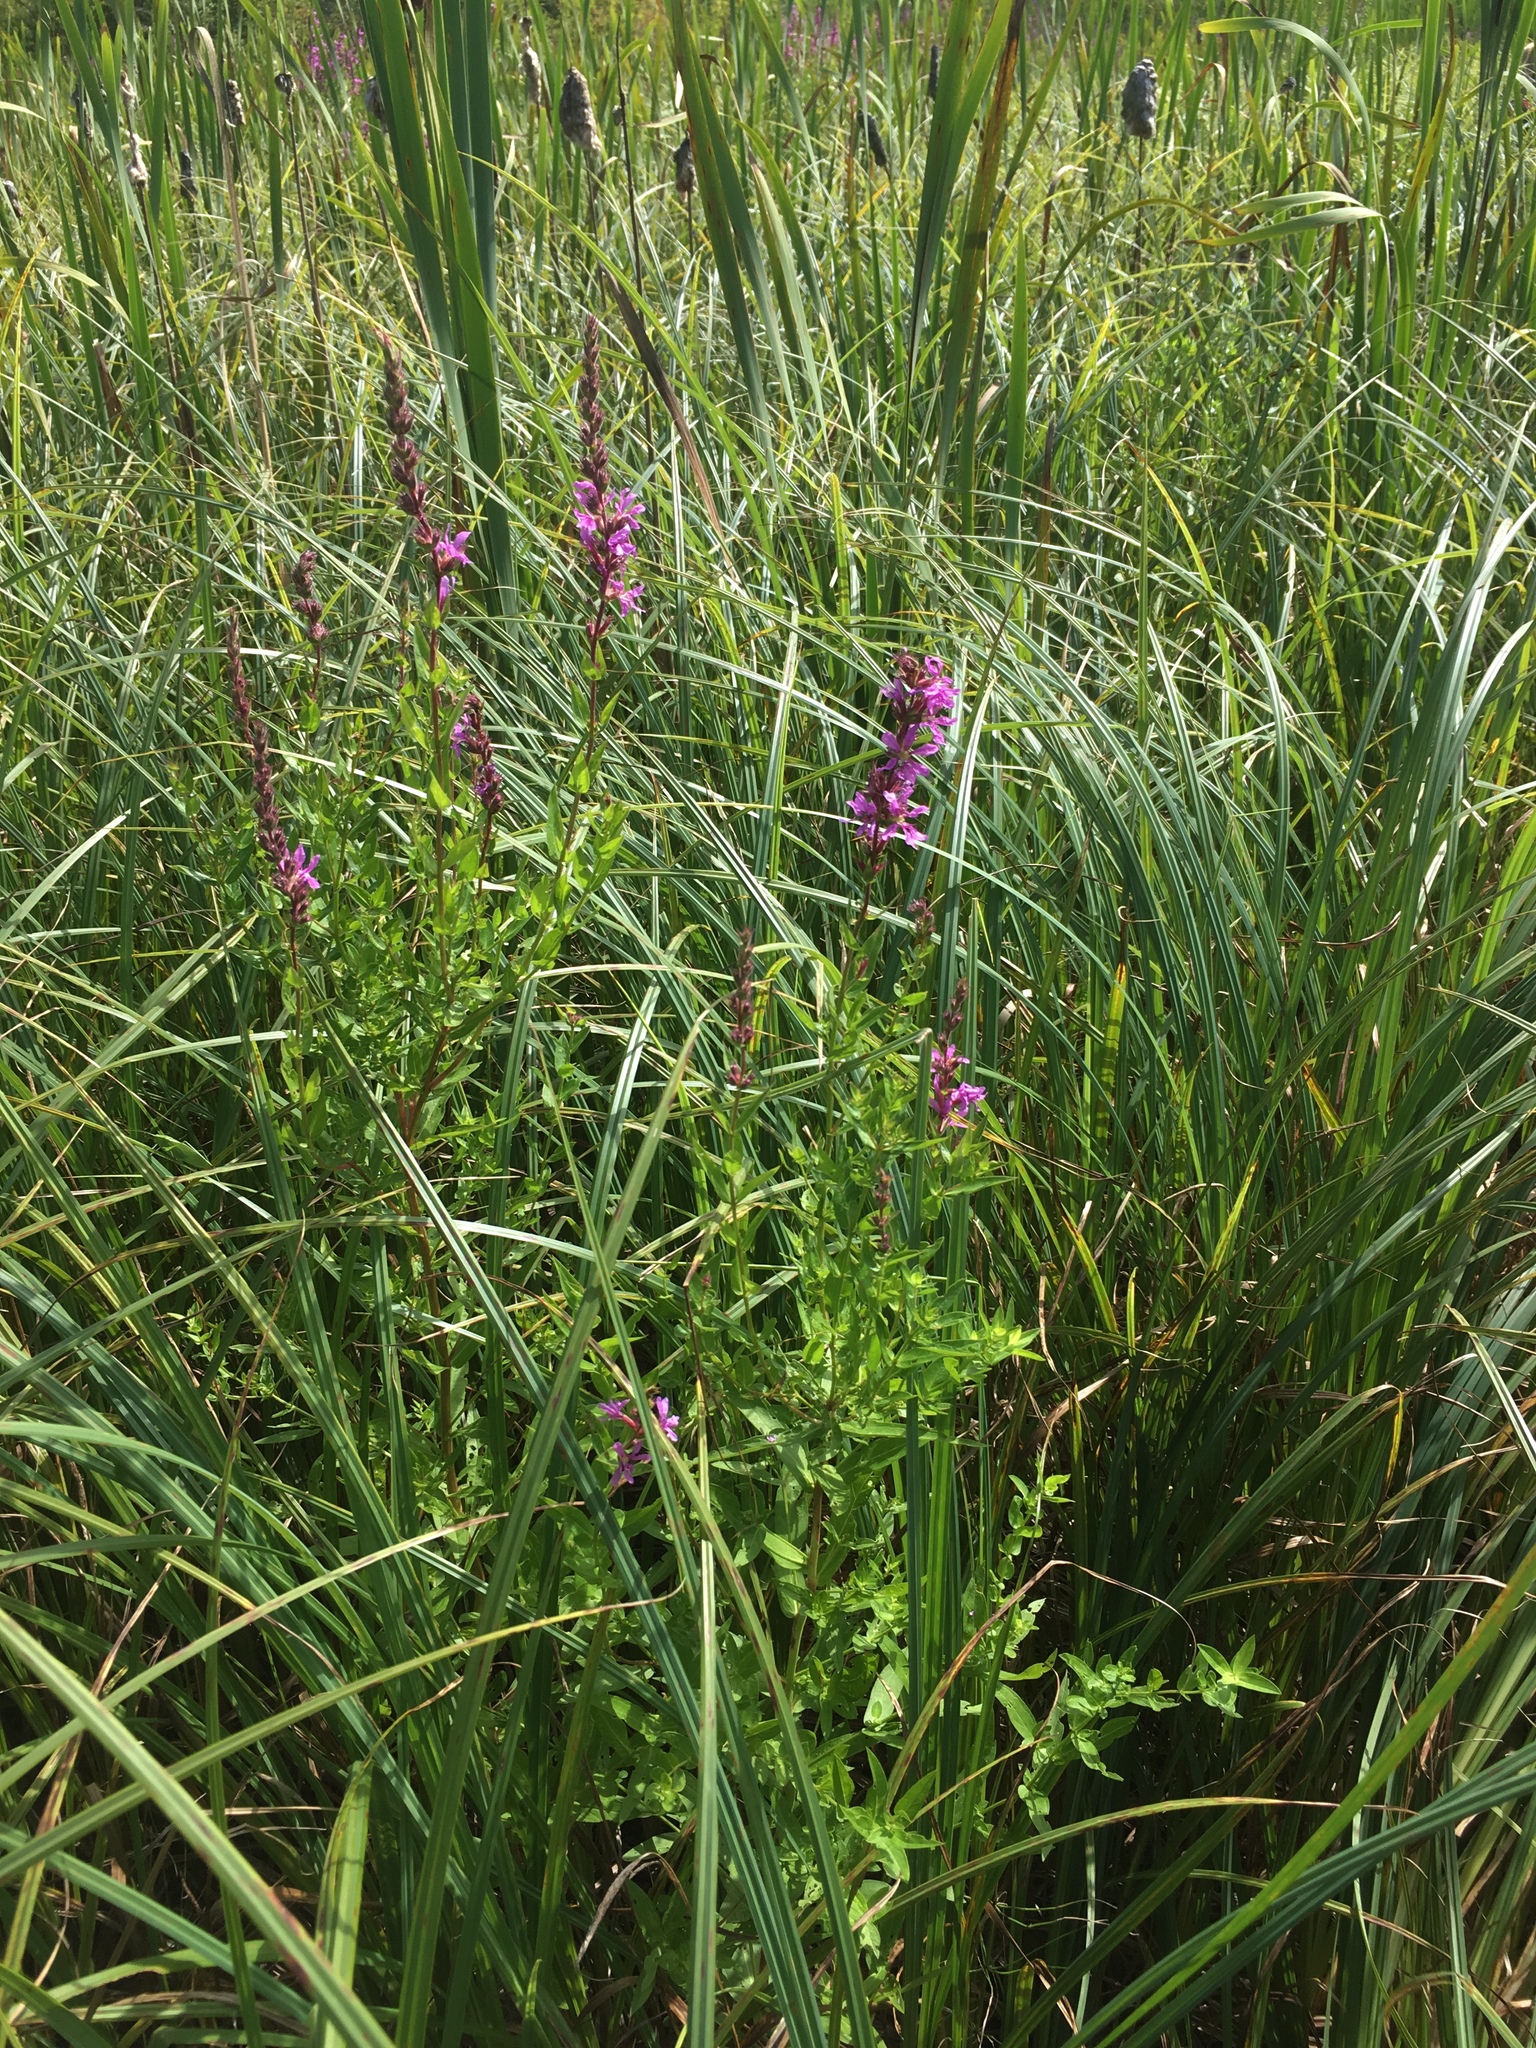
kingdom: Plantae
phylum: Tracheophyta
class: Magnoliopsida
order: Myrtales
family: Lythraceae
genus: Lythrum
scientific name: Lythrum salicaria
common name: Purple loosestrife
